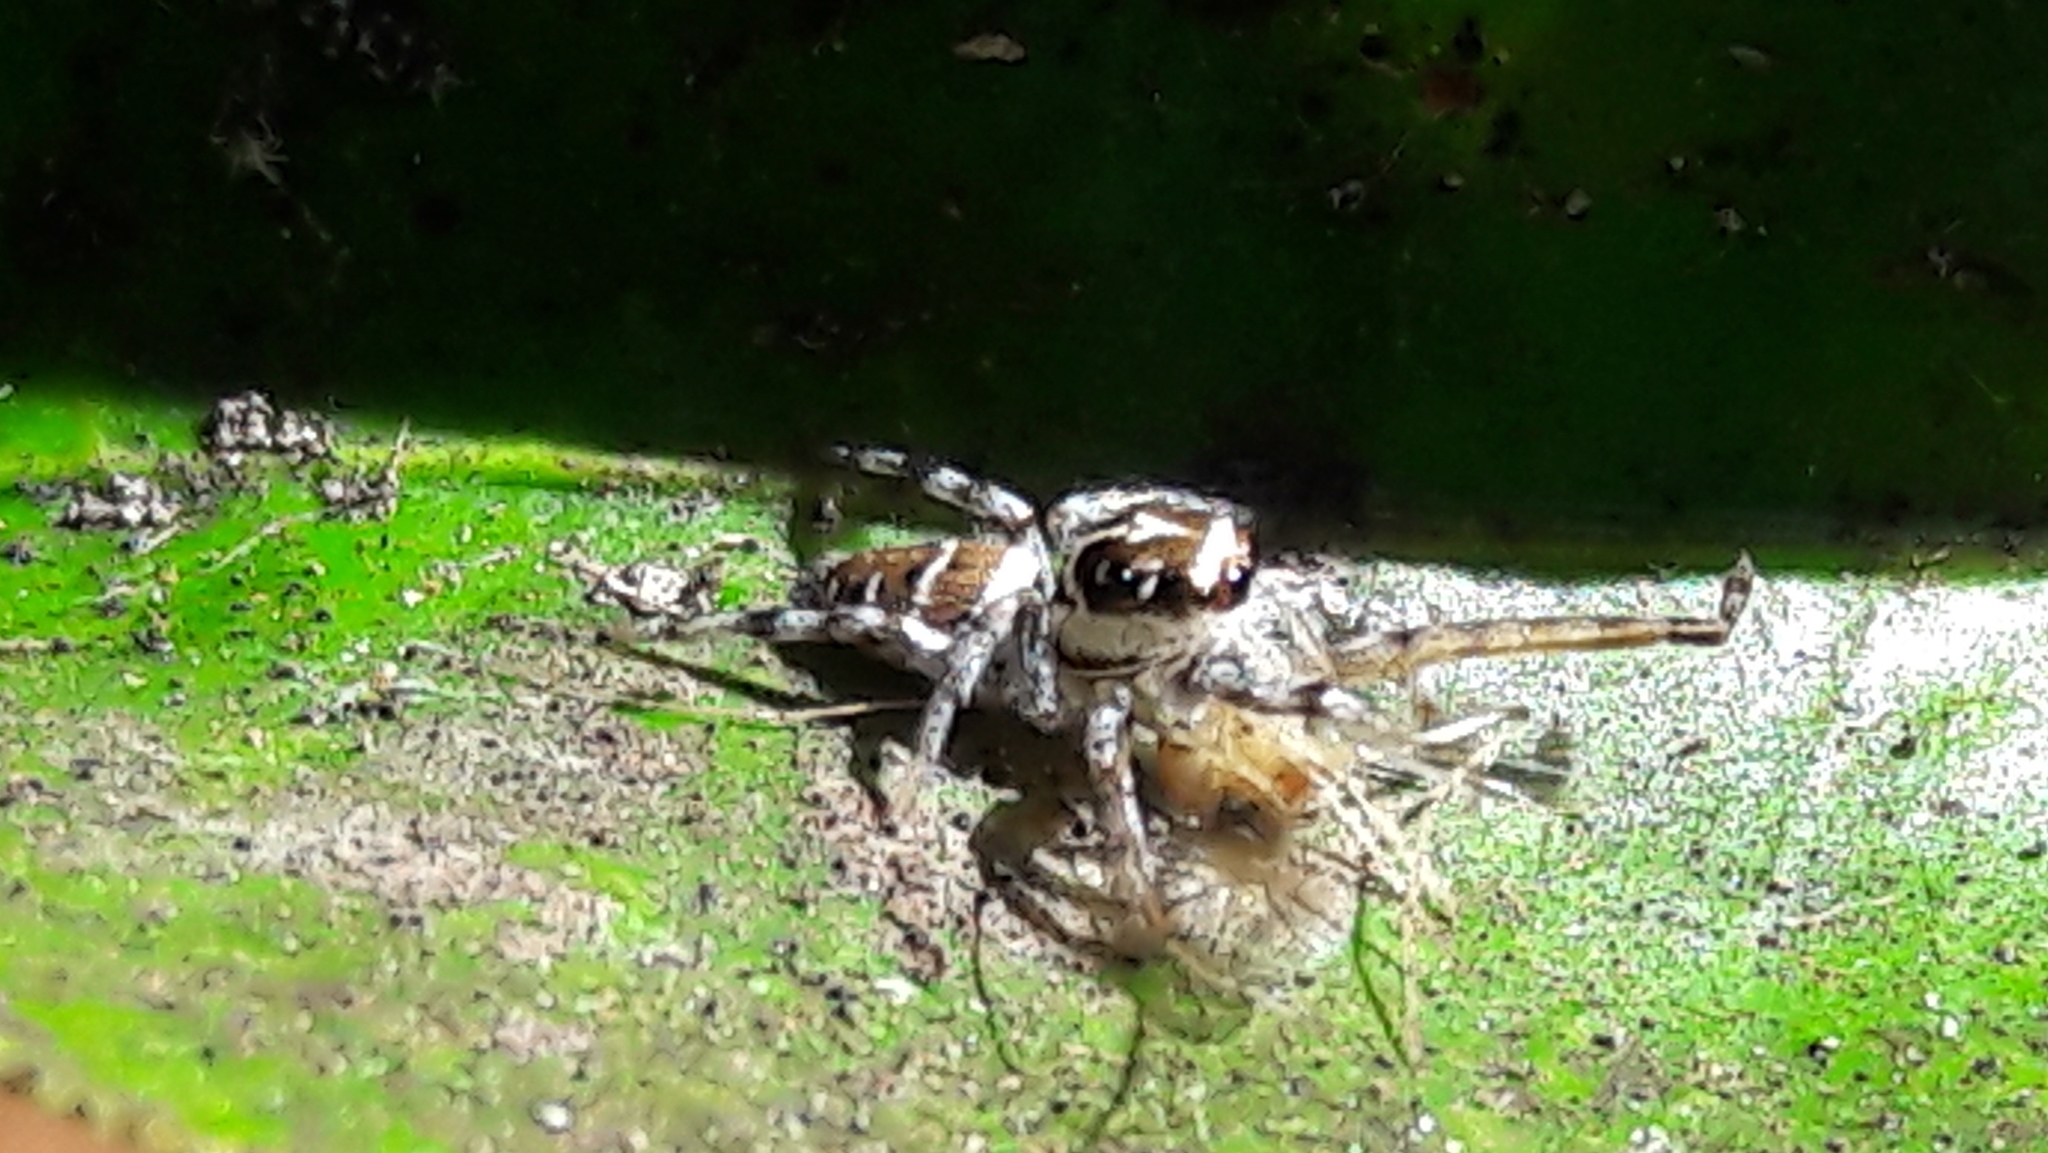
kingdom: Animalia
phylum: Arthropoda
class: Arachnida
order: Araneae
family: Salticidae
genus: Philira
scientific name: Philira micans
